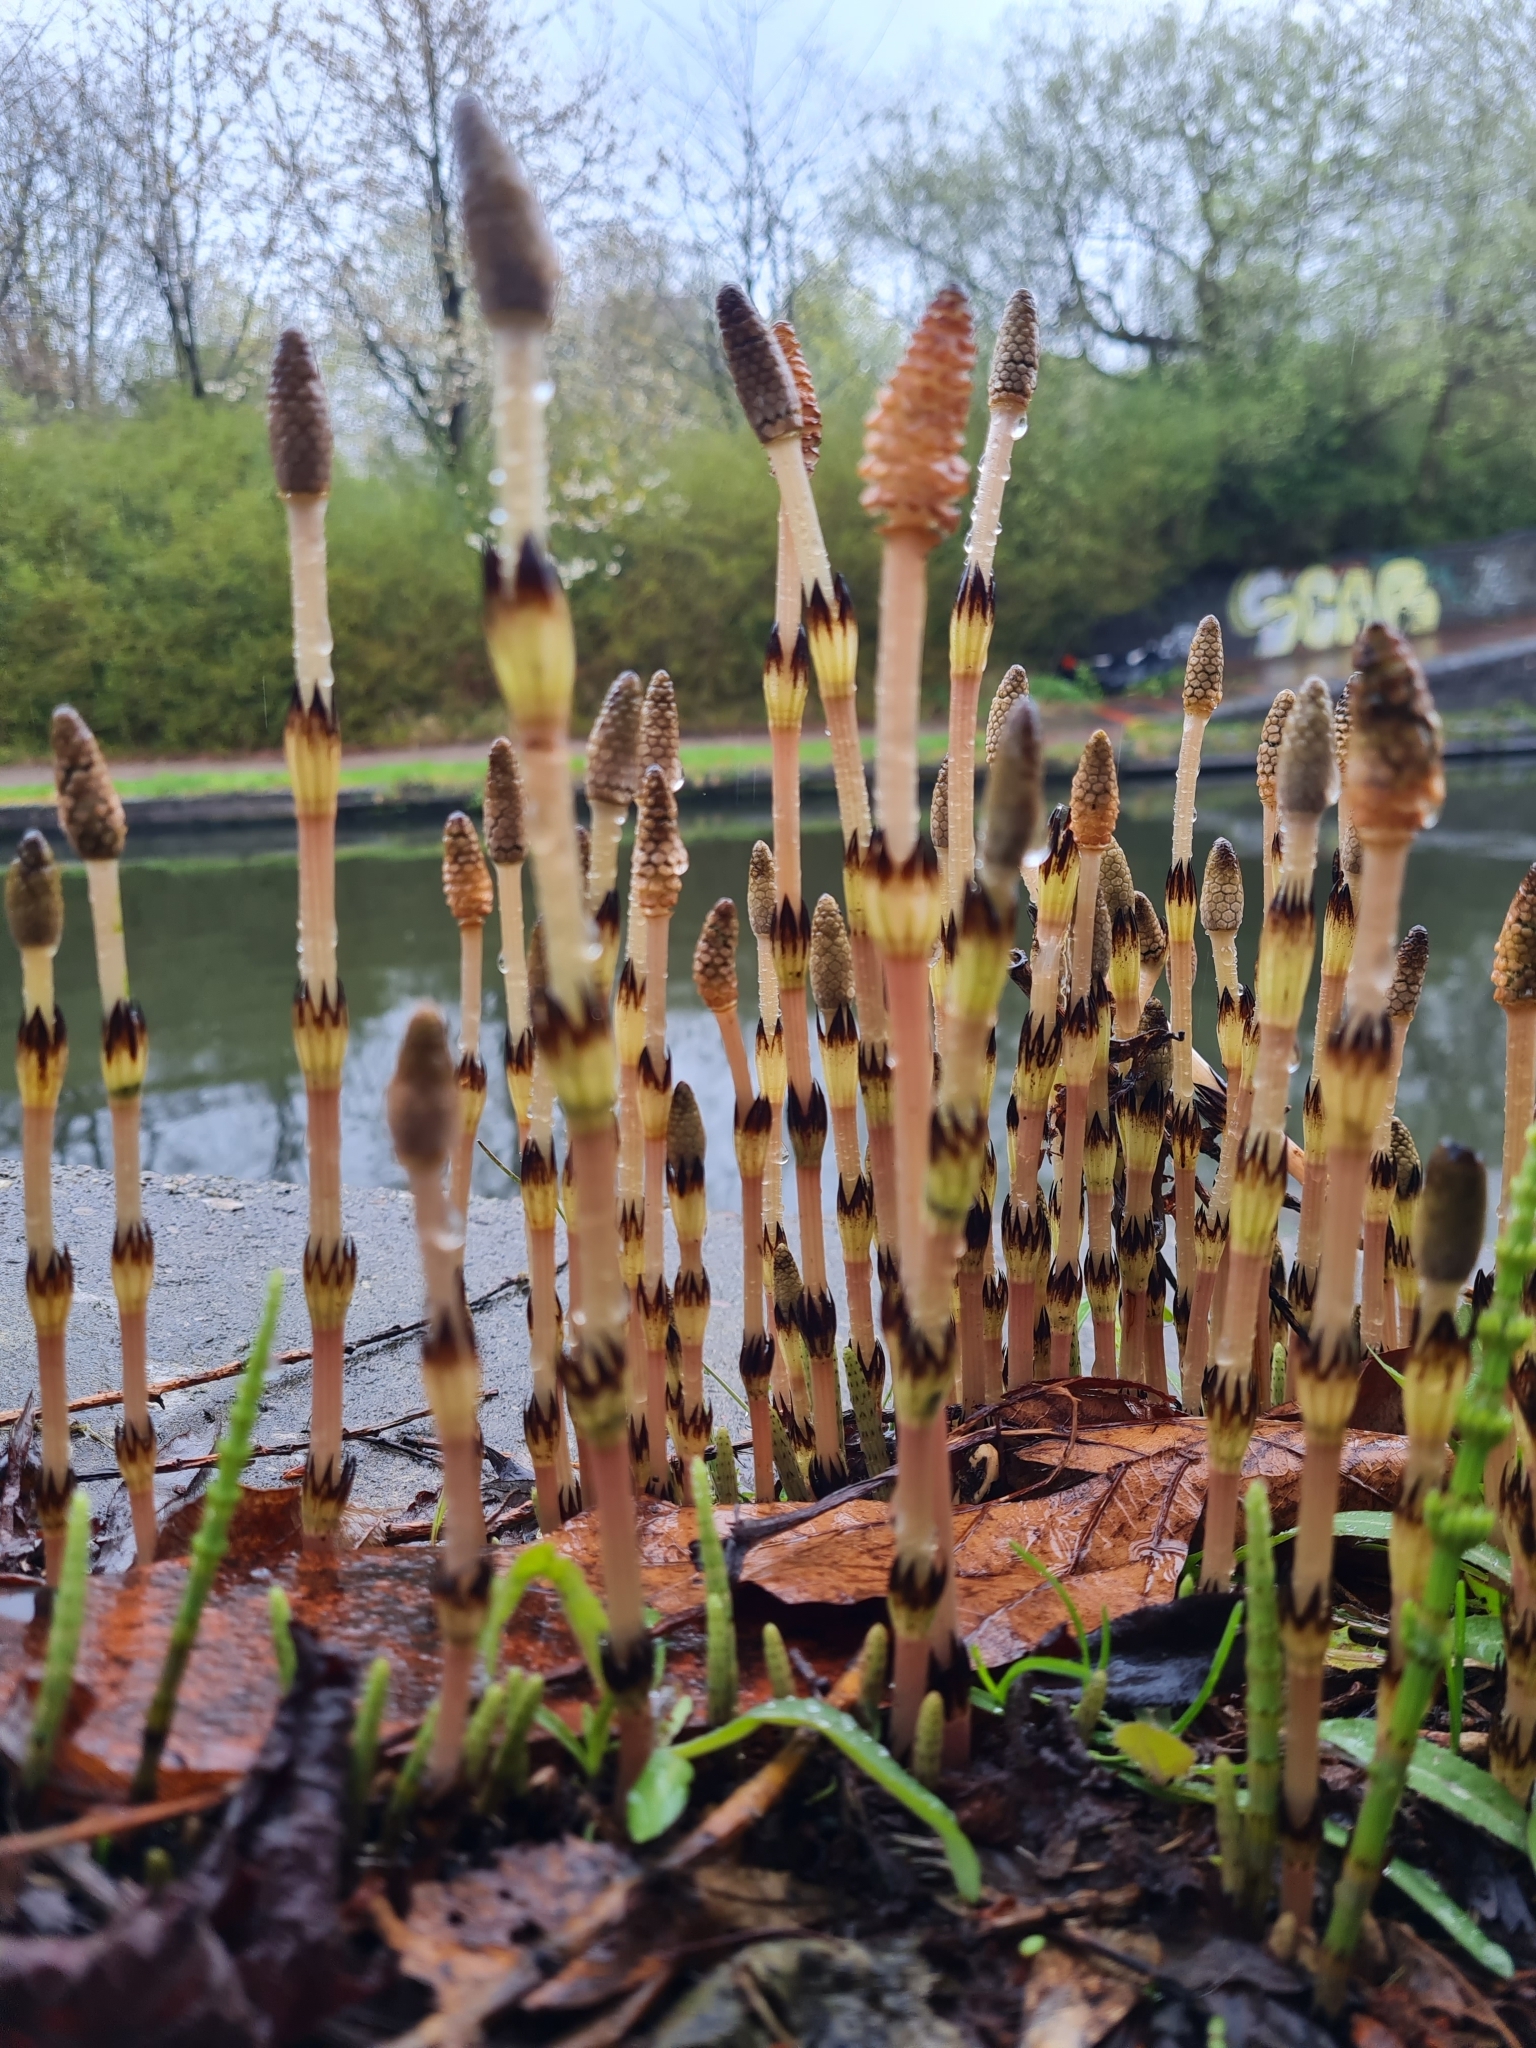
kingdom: Plantae
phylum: Tracheophyta
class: Polypodiopsida
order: Equisetales
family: Equisetaceae
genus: Equisetum
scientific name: Equisetum arvense
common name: Field horsetail
